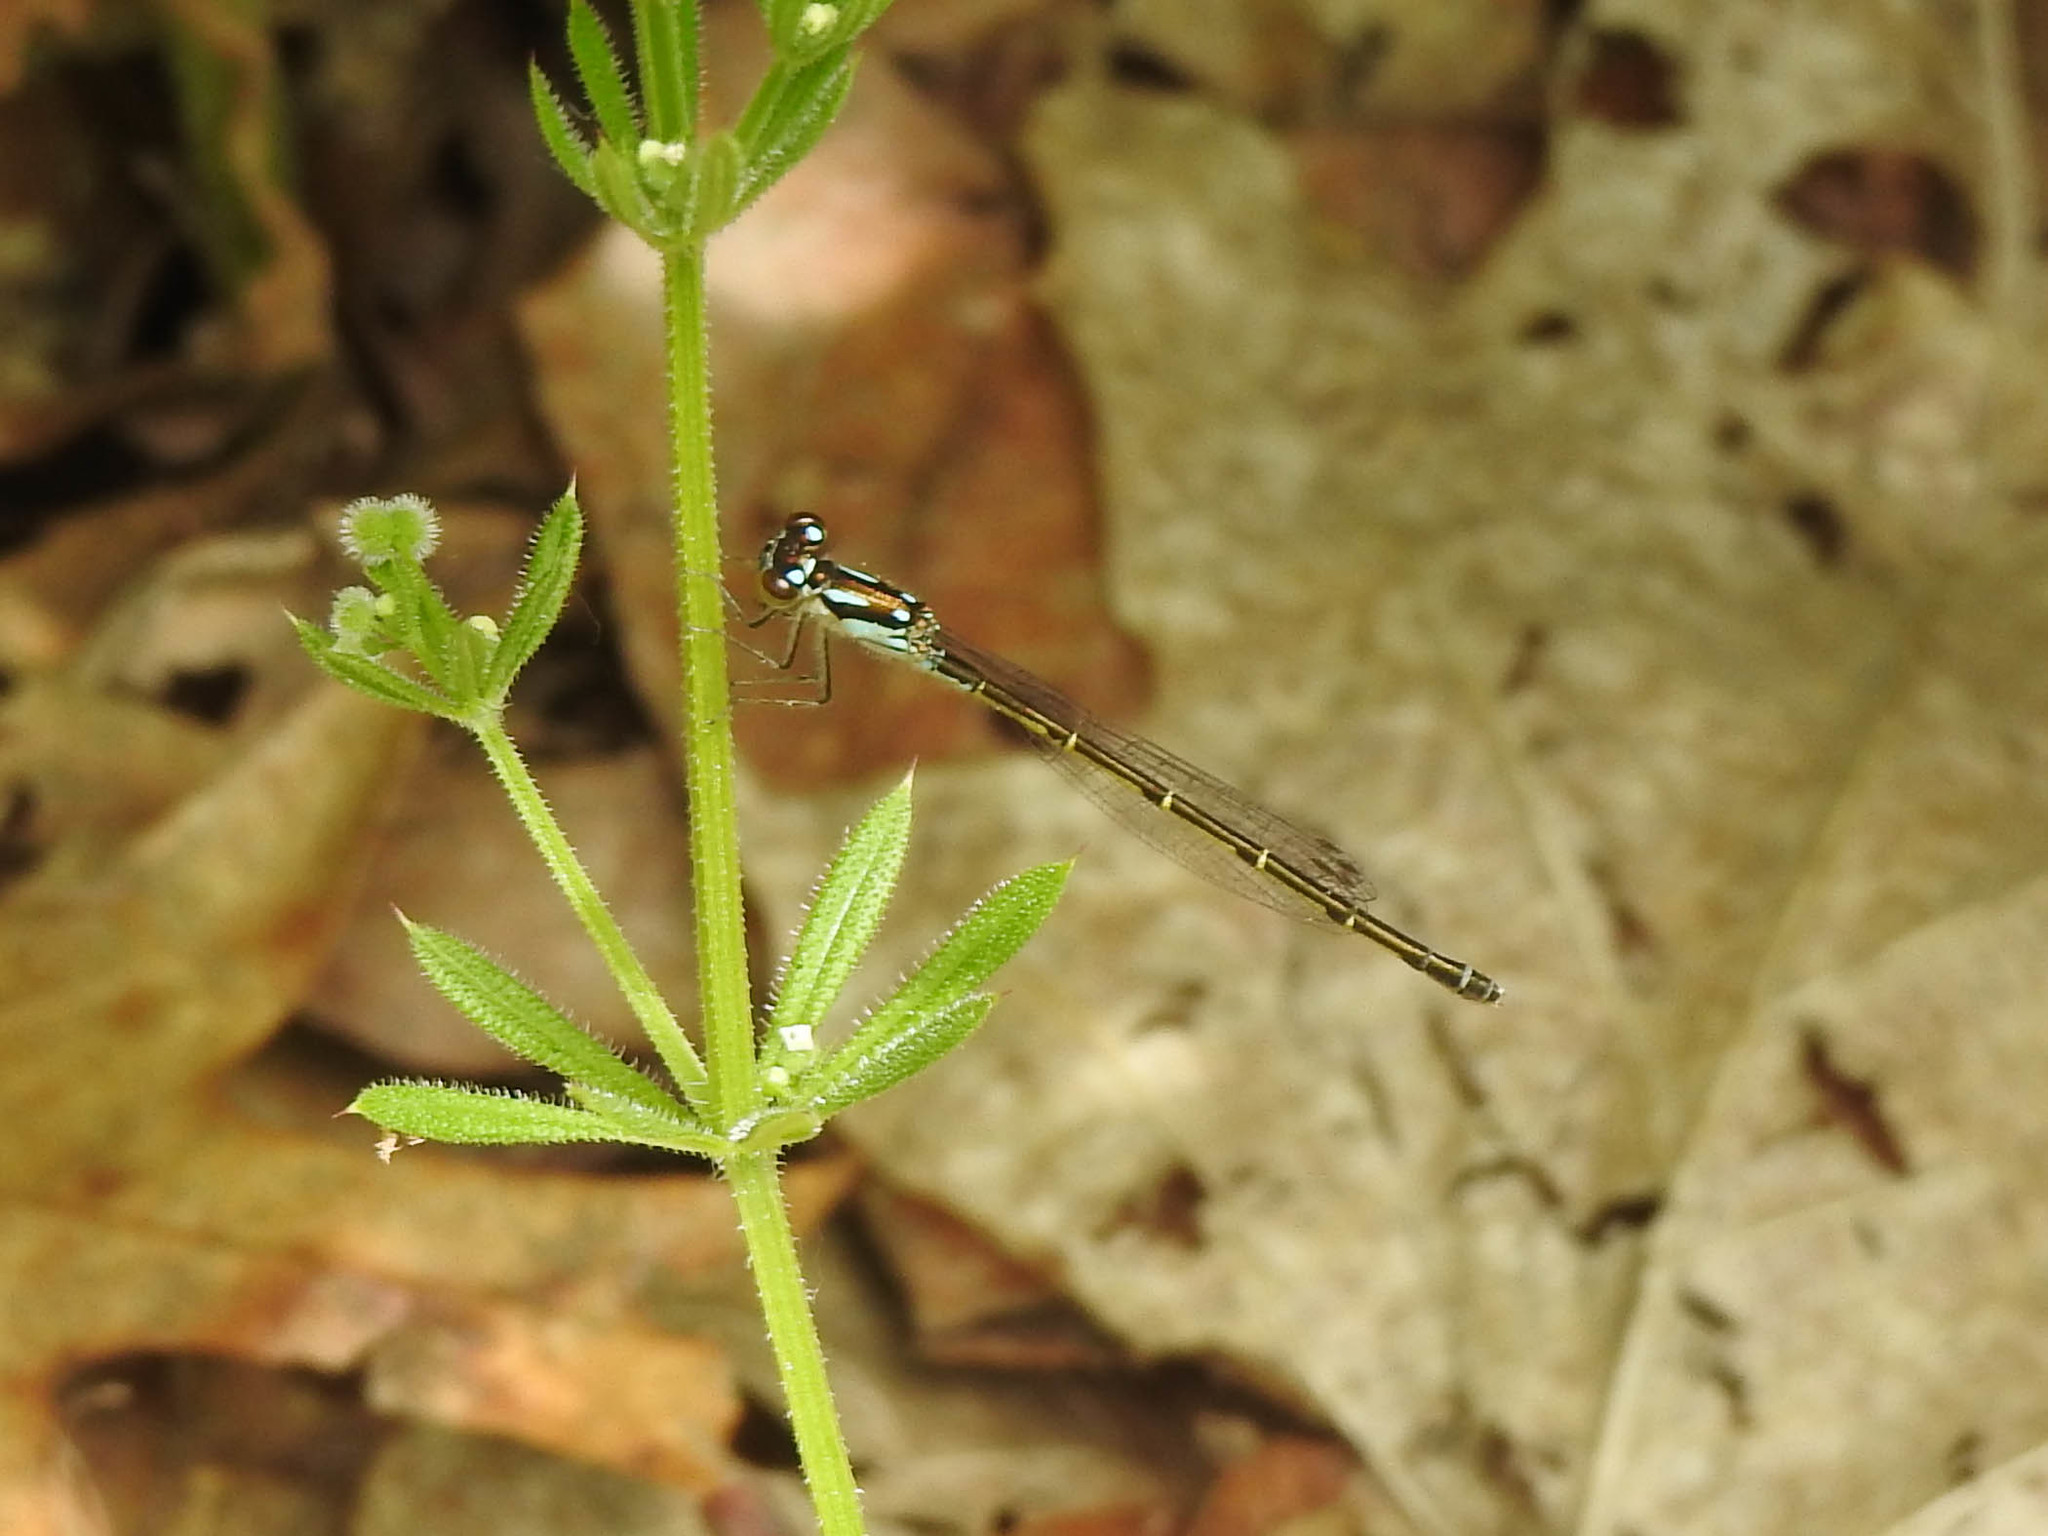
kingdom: Animalia
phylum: Arthropoda
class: Insecta
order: Odonata
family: Coenagrionidae
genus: Ischnura
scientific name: Ischnura posita
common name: Fragile forktail
